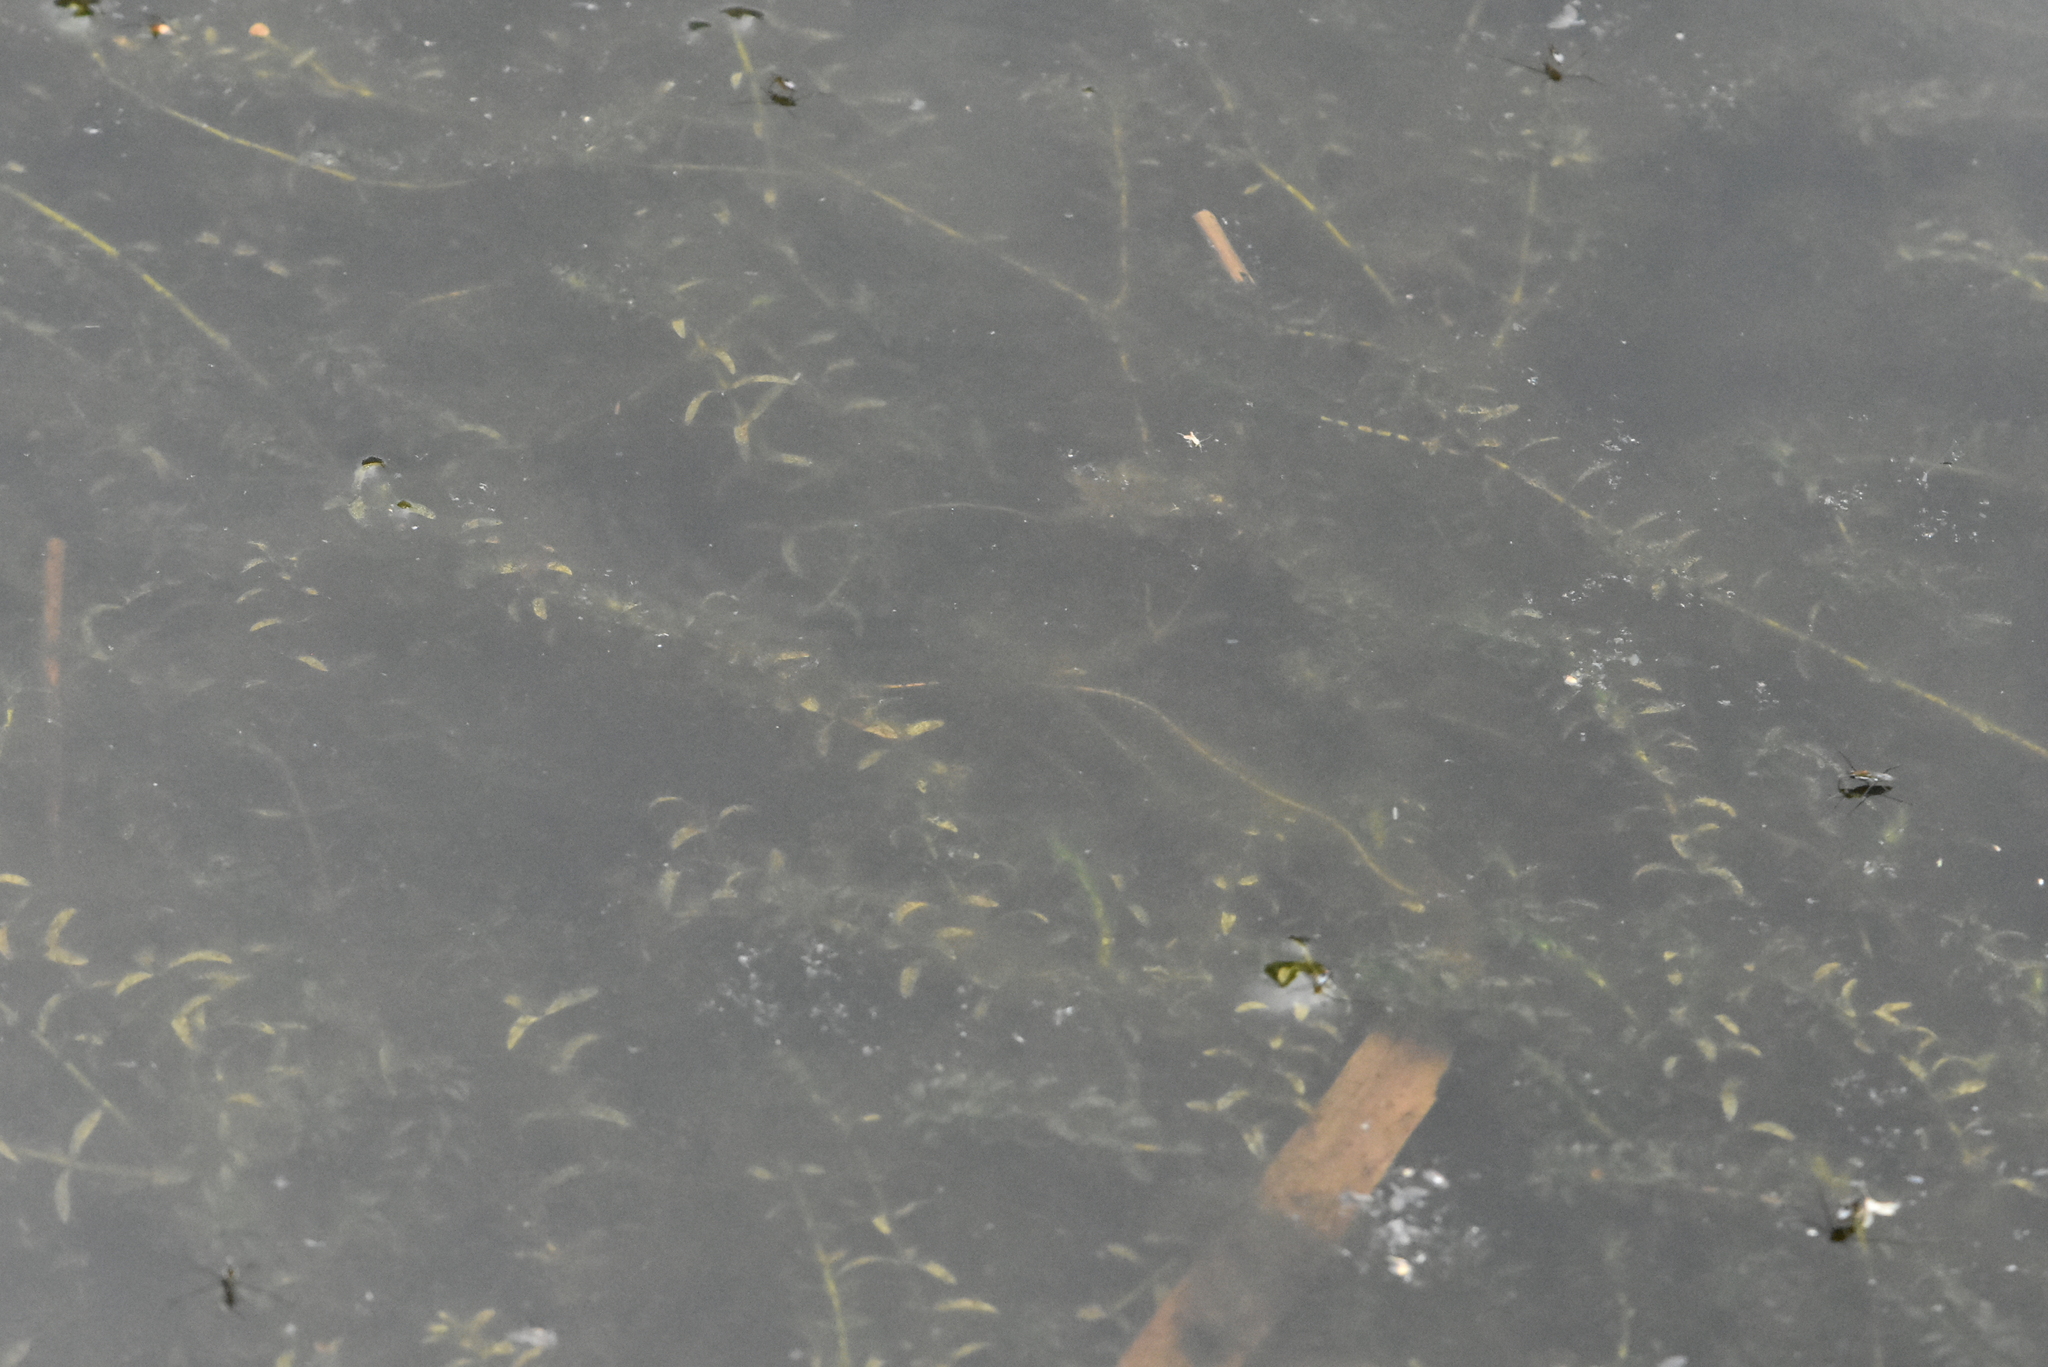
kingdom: Plantae
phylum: Tracheophyta
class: Liliopsida
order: Alismatales
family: Hydrocharitaceae
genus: Elodea
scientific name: Elodea canadensis
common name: Canadian waterweed
